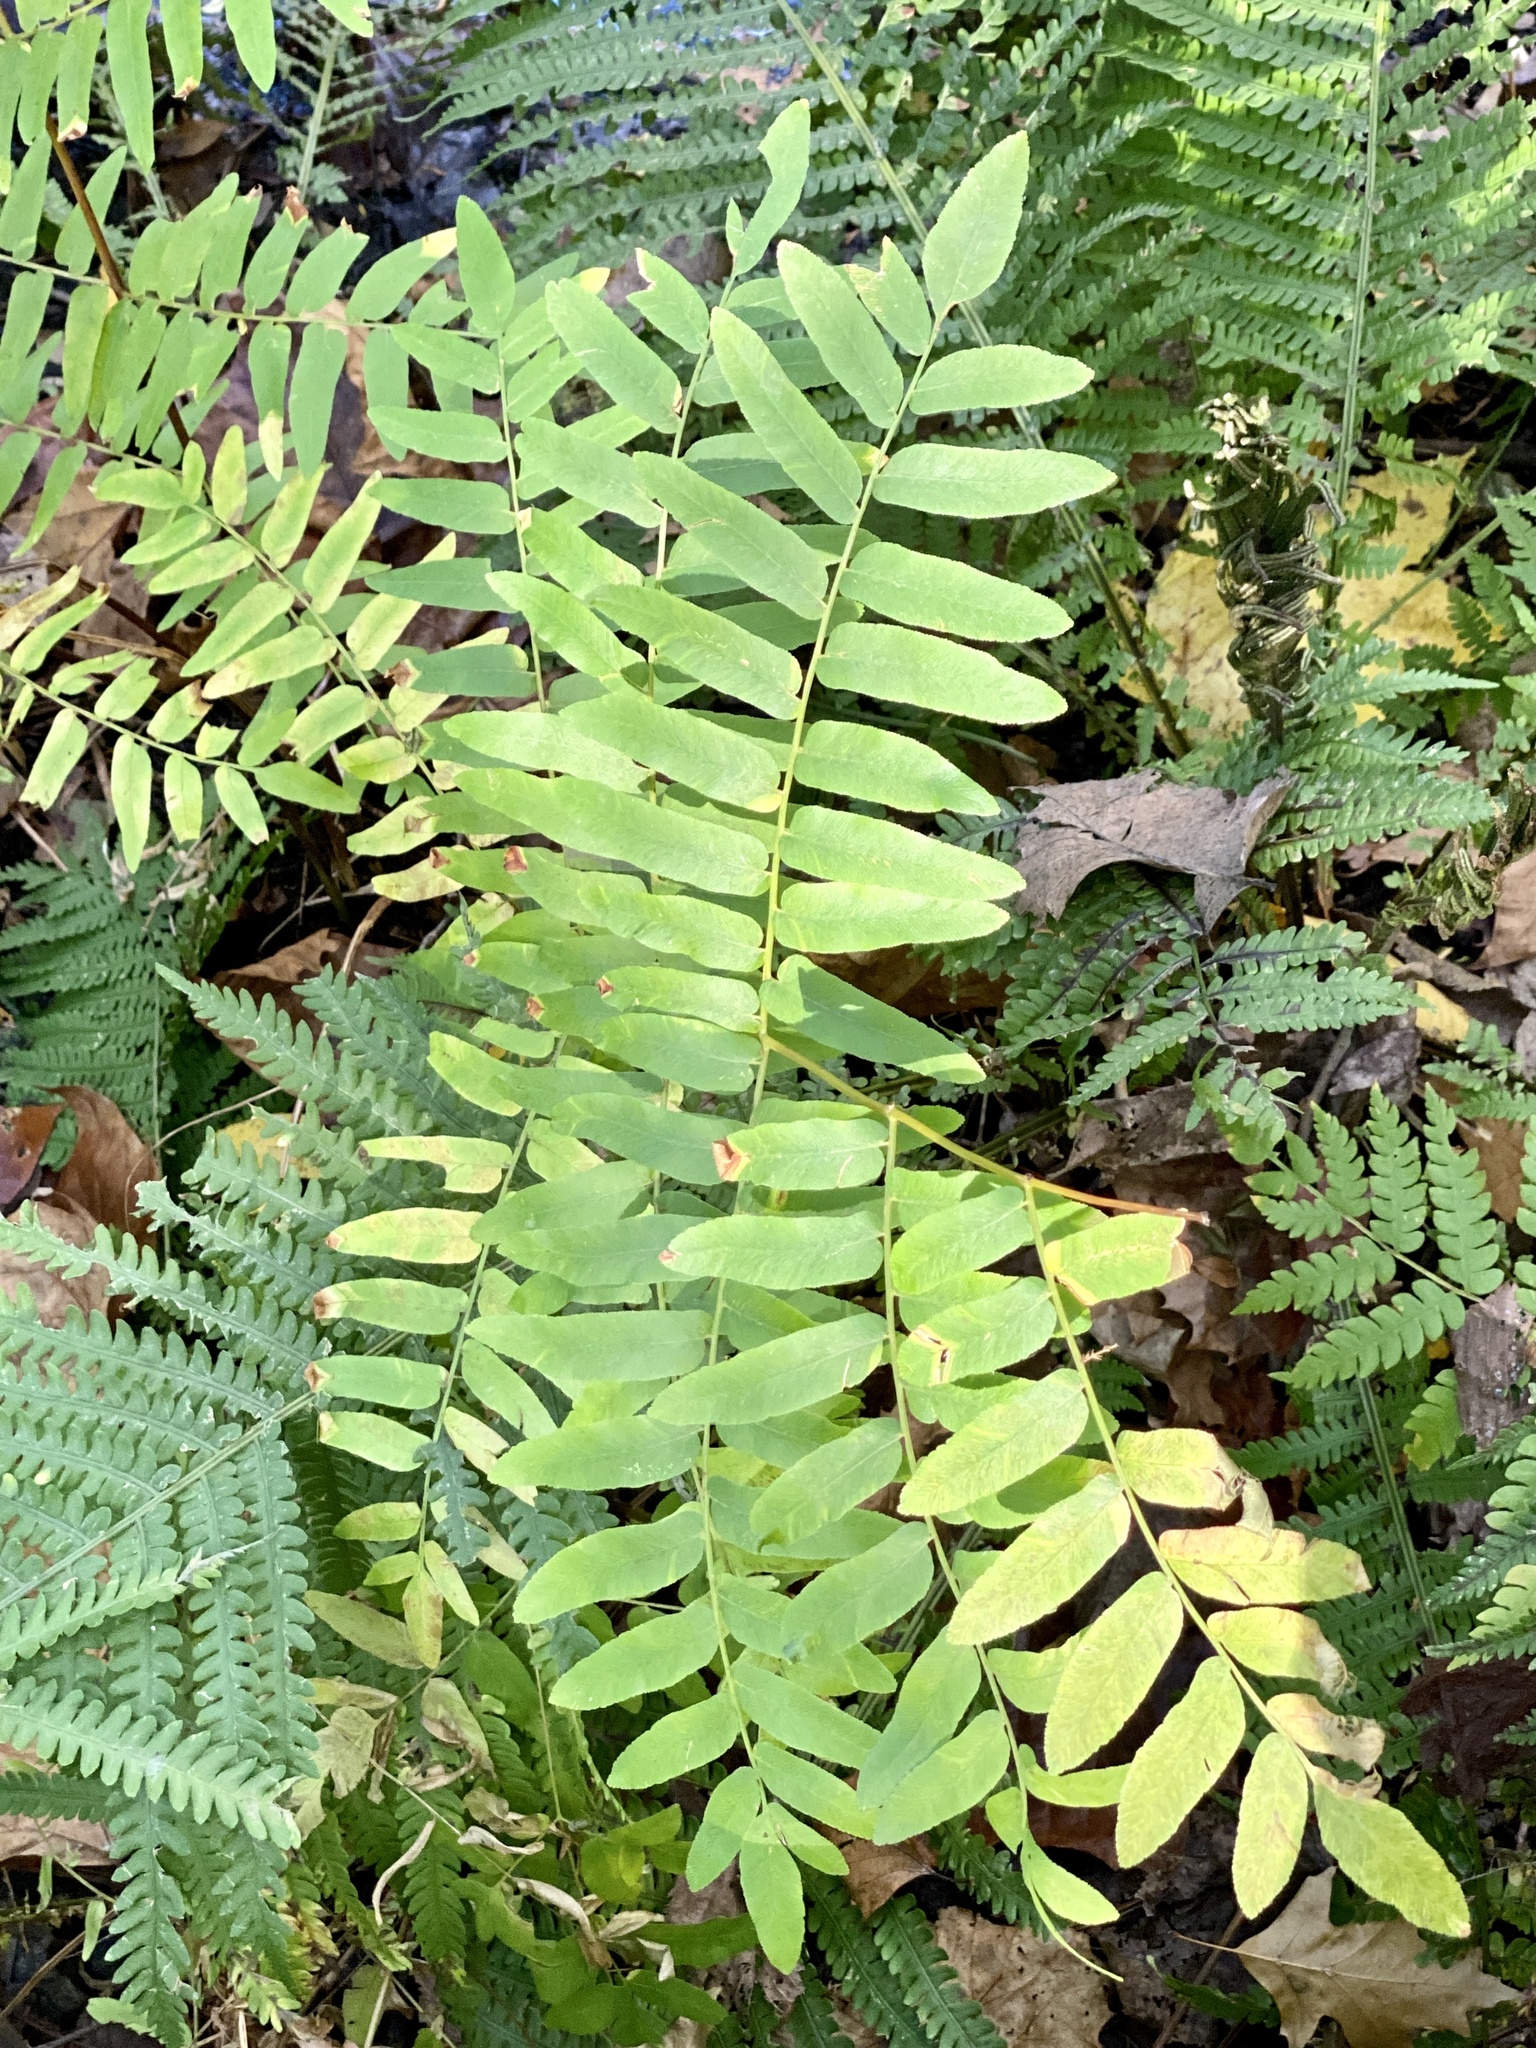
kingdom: Plantae
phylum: Tracheophyta
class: Polypodiopsida
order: Osmundales
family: Osmundaceae
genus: Osmunda
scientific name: Osmunda spectabilis
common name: American royal fern
